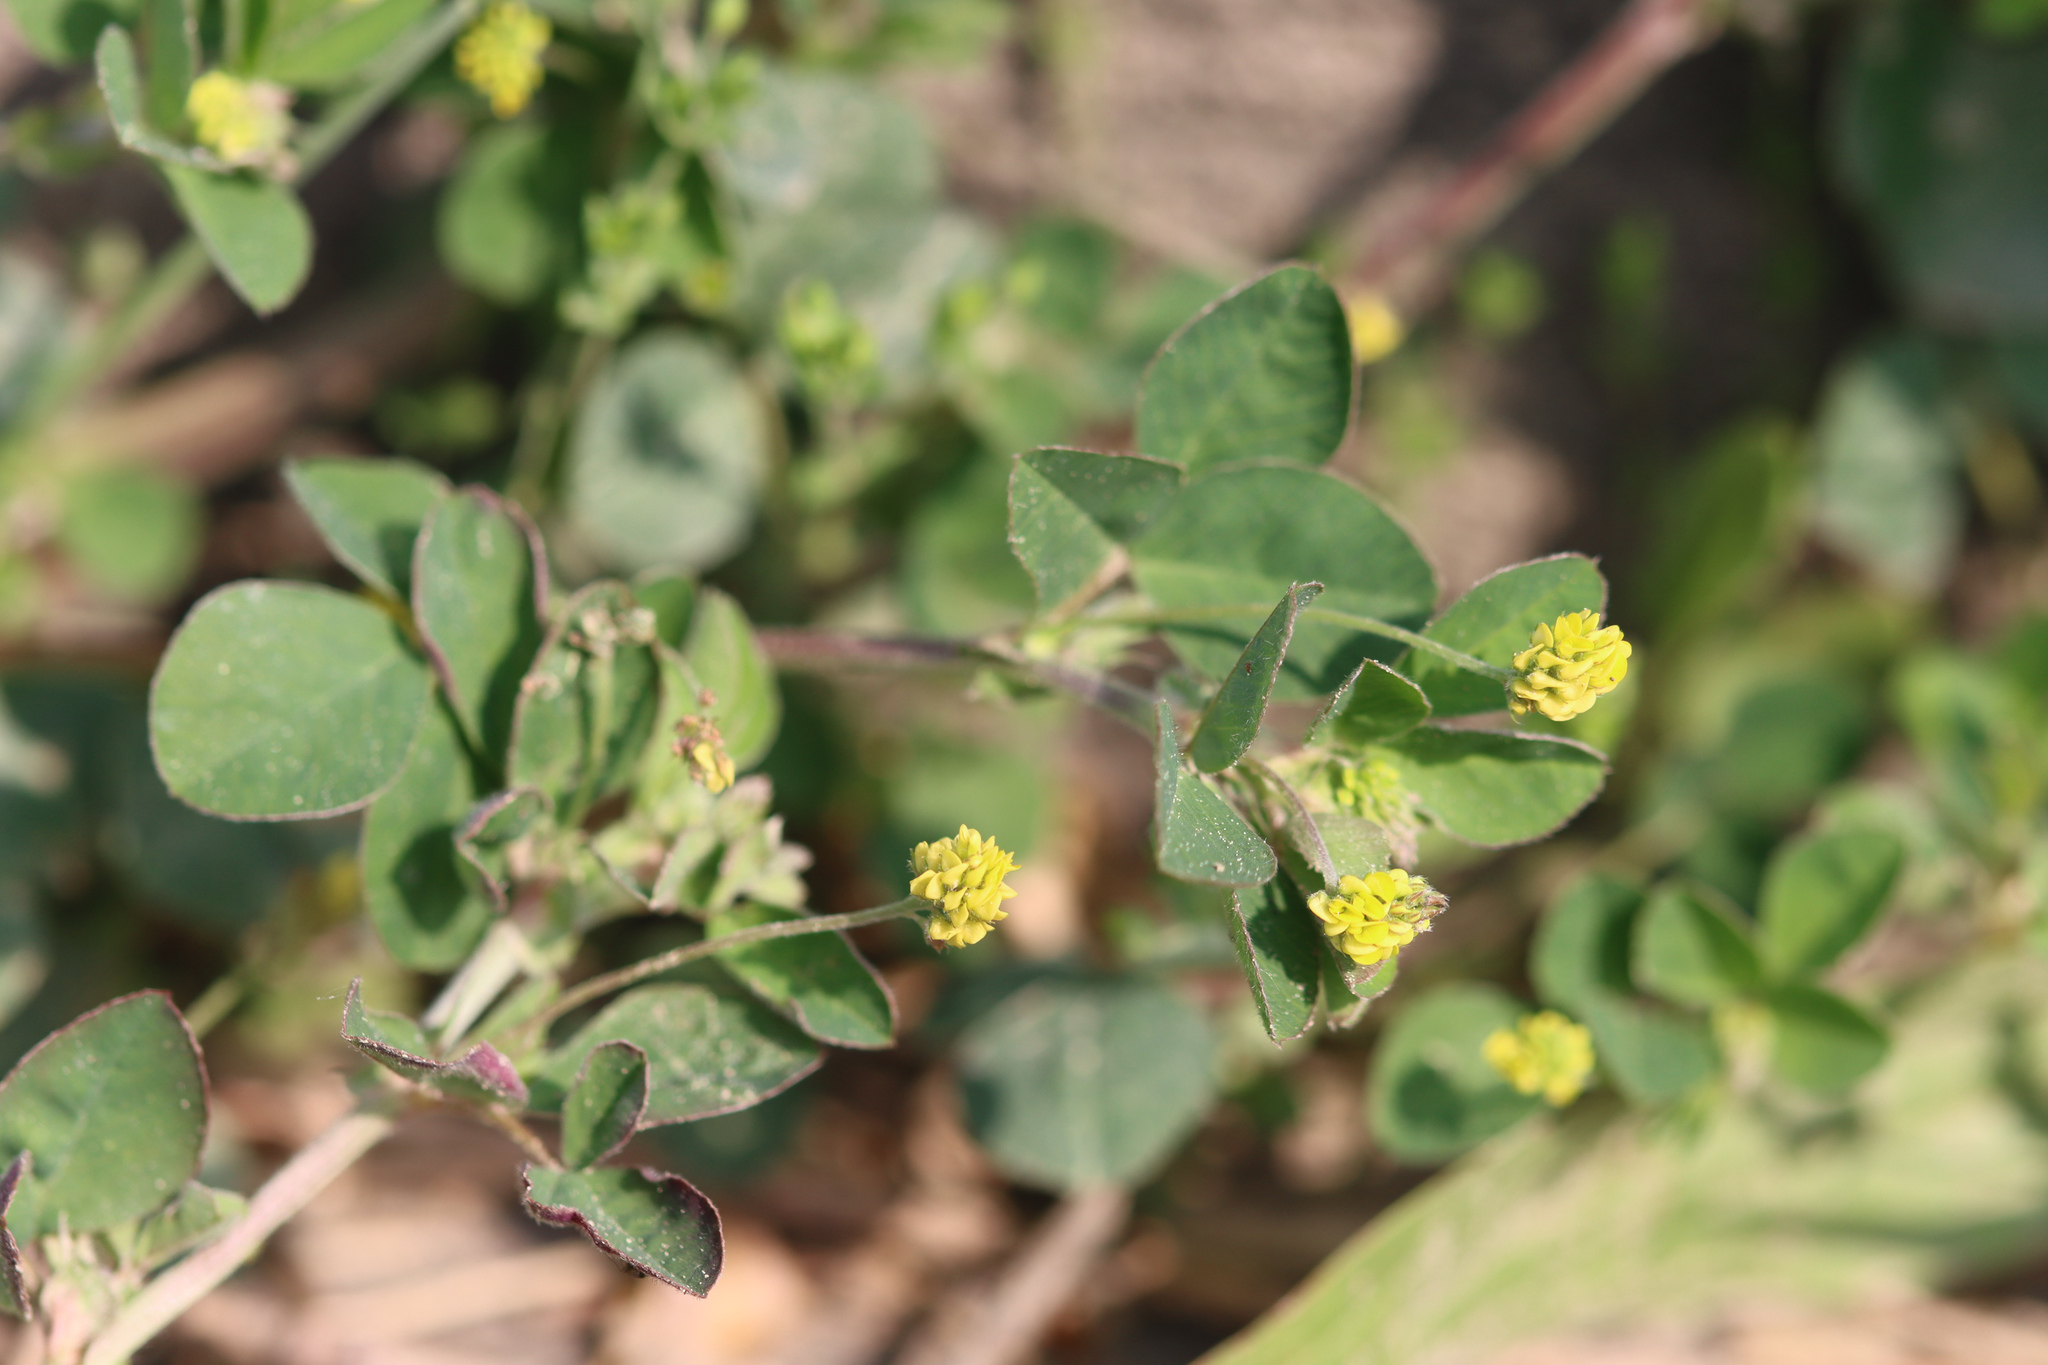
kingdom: Plantae
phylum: Tracheophyta
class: Magnoliopsida
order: Fabales
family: Fabaceae
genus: Medicago
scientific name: Medicago lupulina
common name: Black medick
